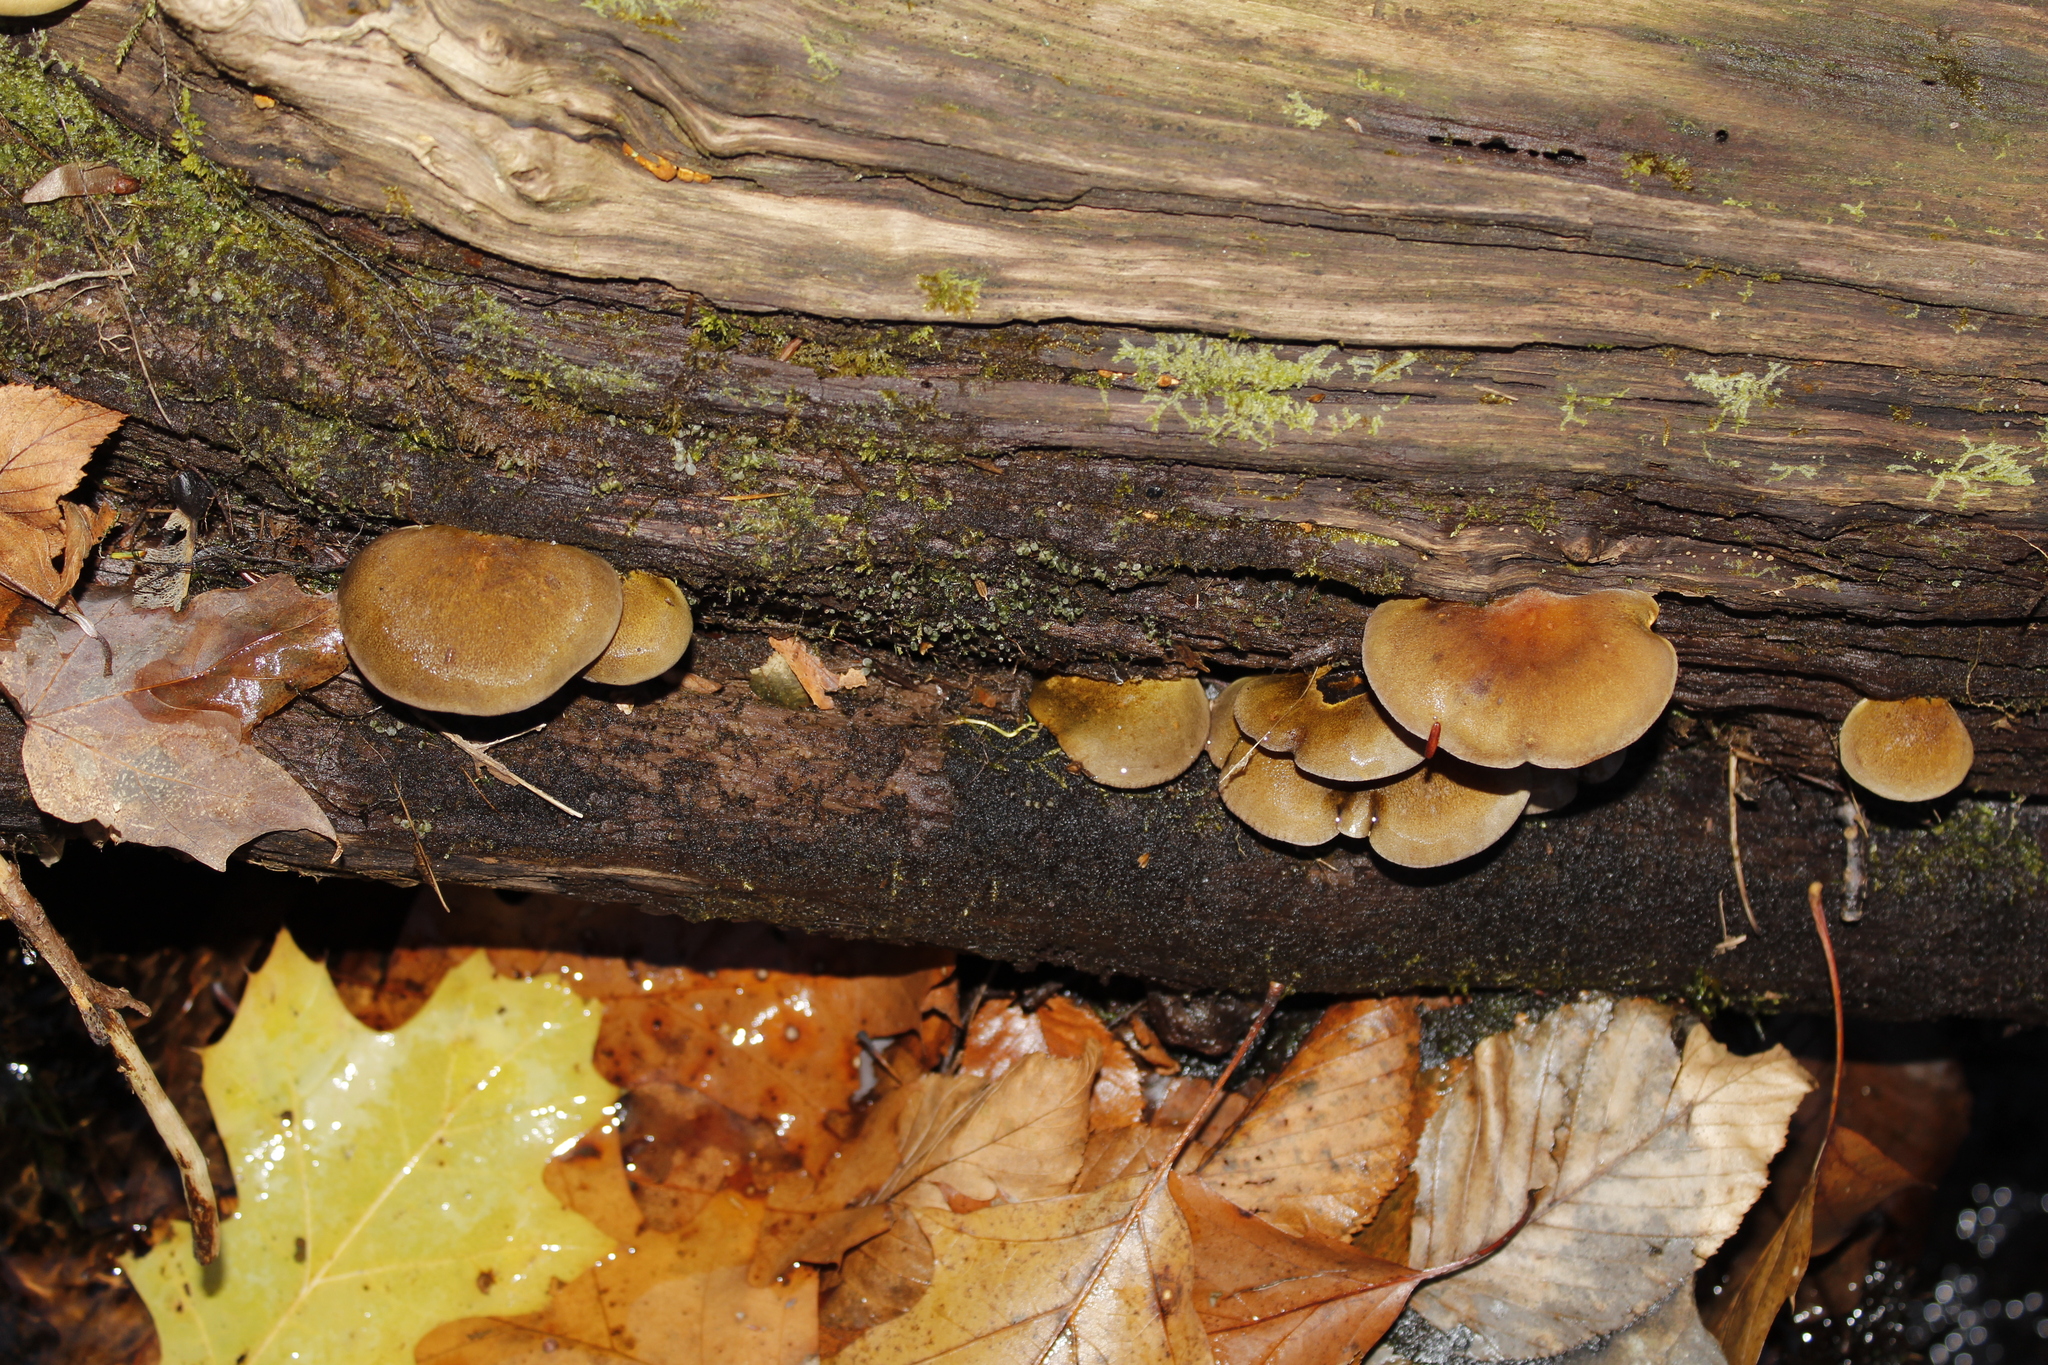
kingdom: Fungi
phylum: Basidiomycota
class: Agaricomycetes
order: Agaricales
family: Sarcomyxaceae
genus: Sarcomyxa
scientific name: Sarcomyxa serotina
